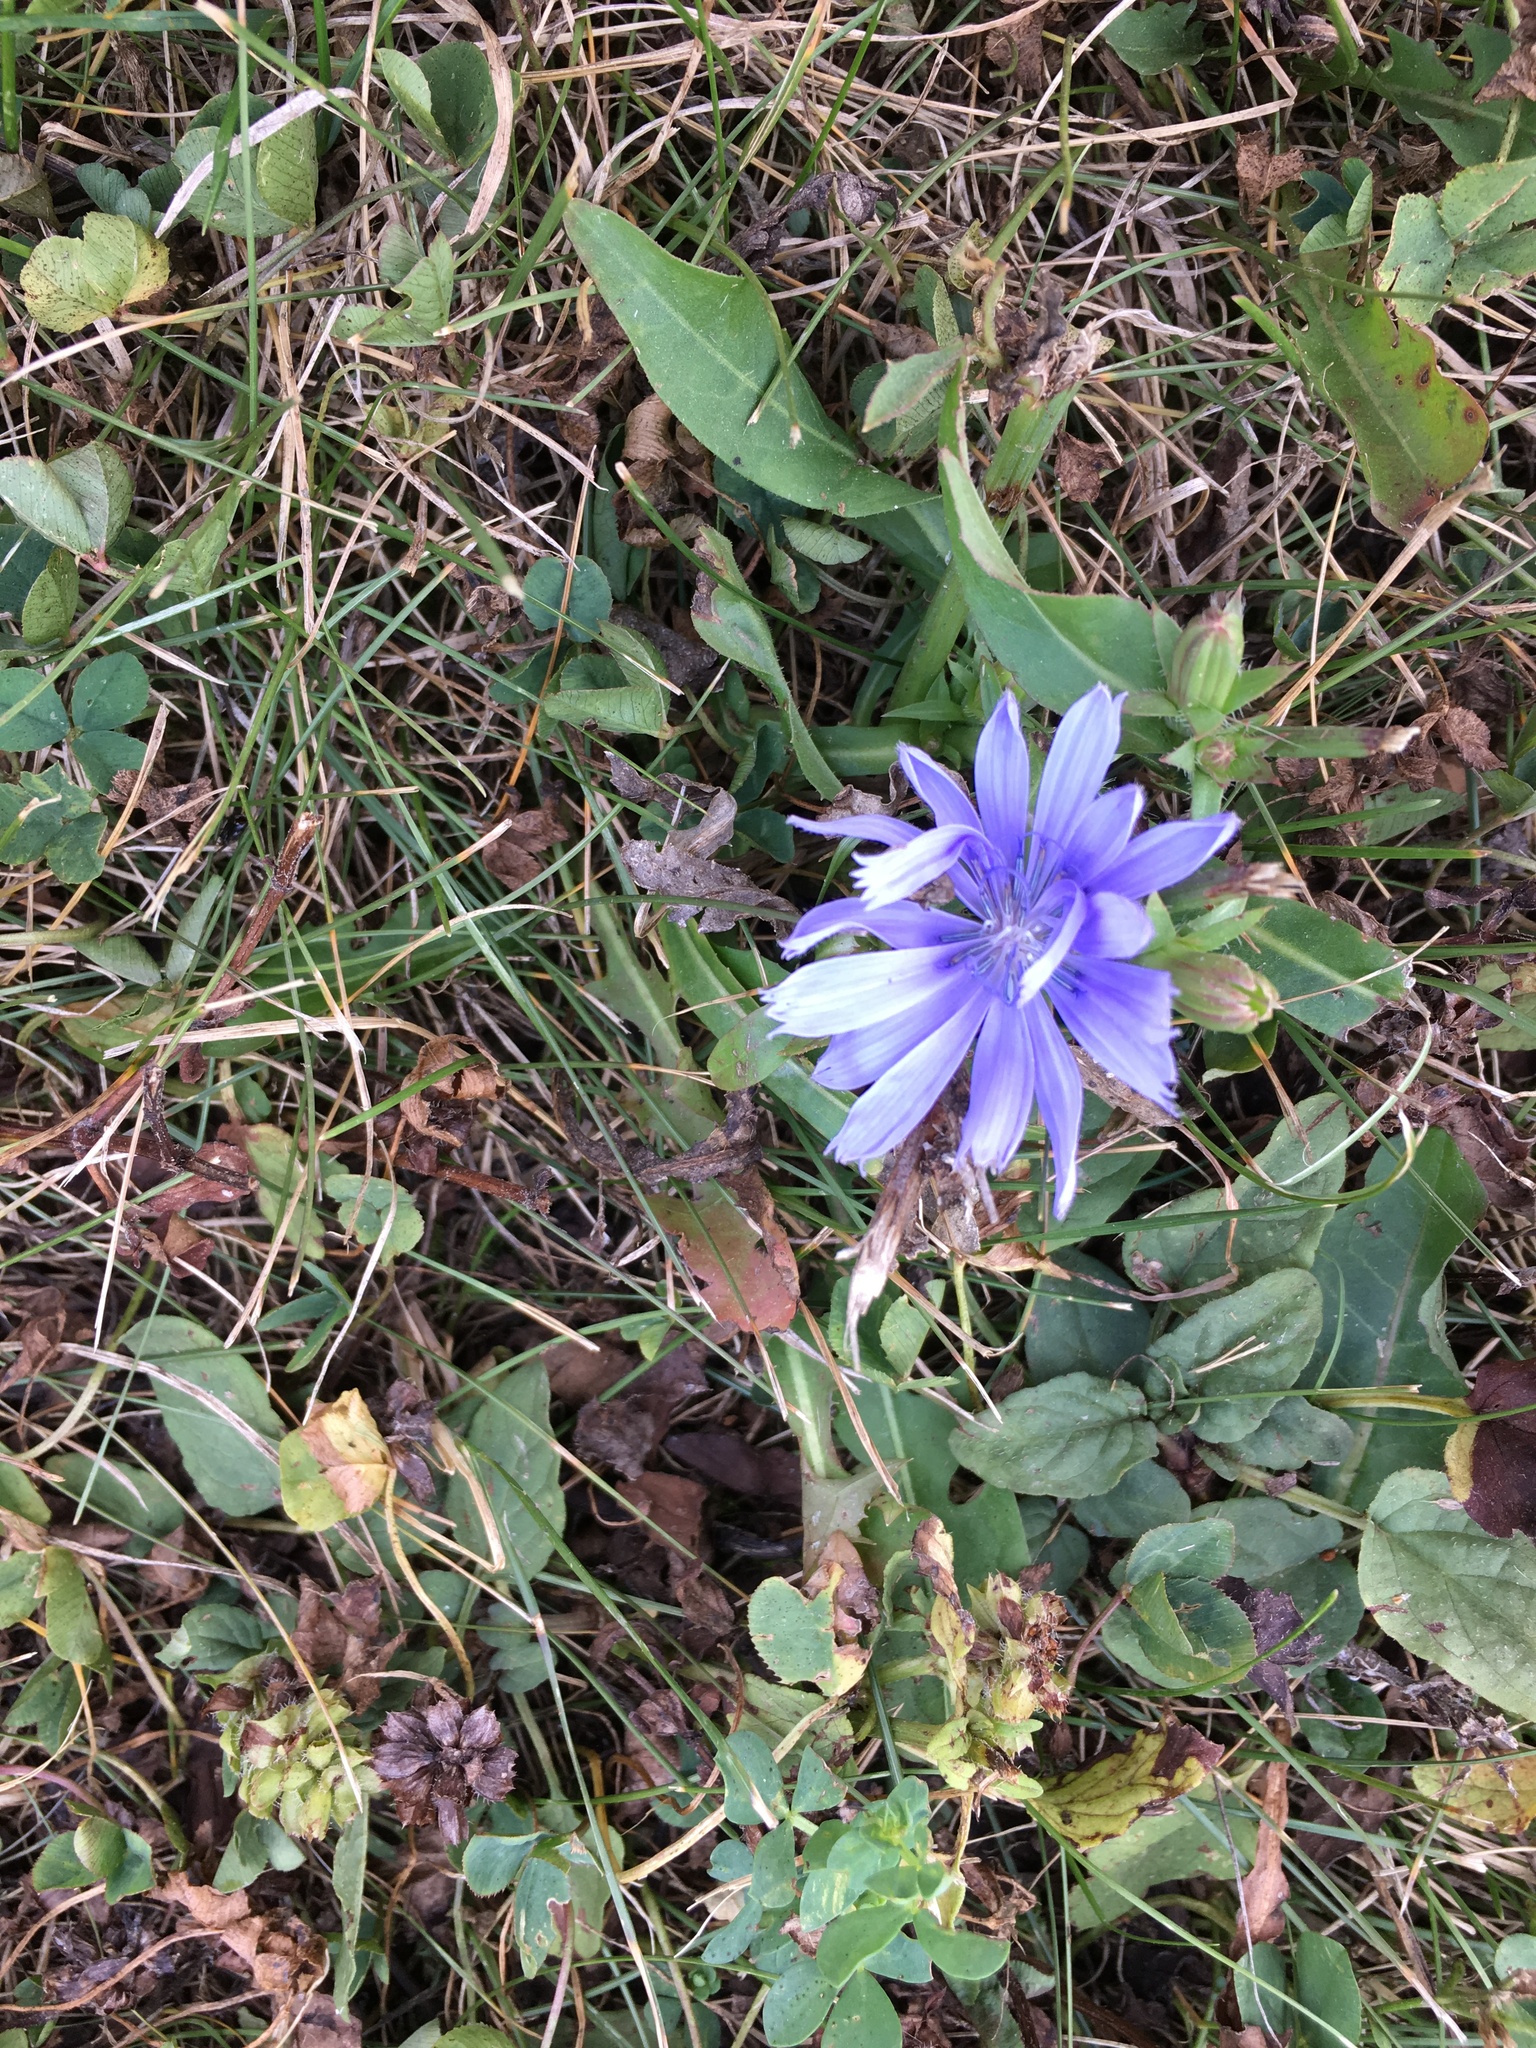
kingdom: Plantae
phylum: Tracheophyta
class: Magnoliopsida
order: Asterales
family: Asteraceae
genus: Cichorium
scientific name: Cichorium intybus
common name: Chicory
